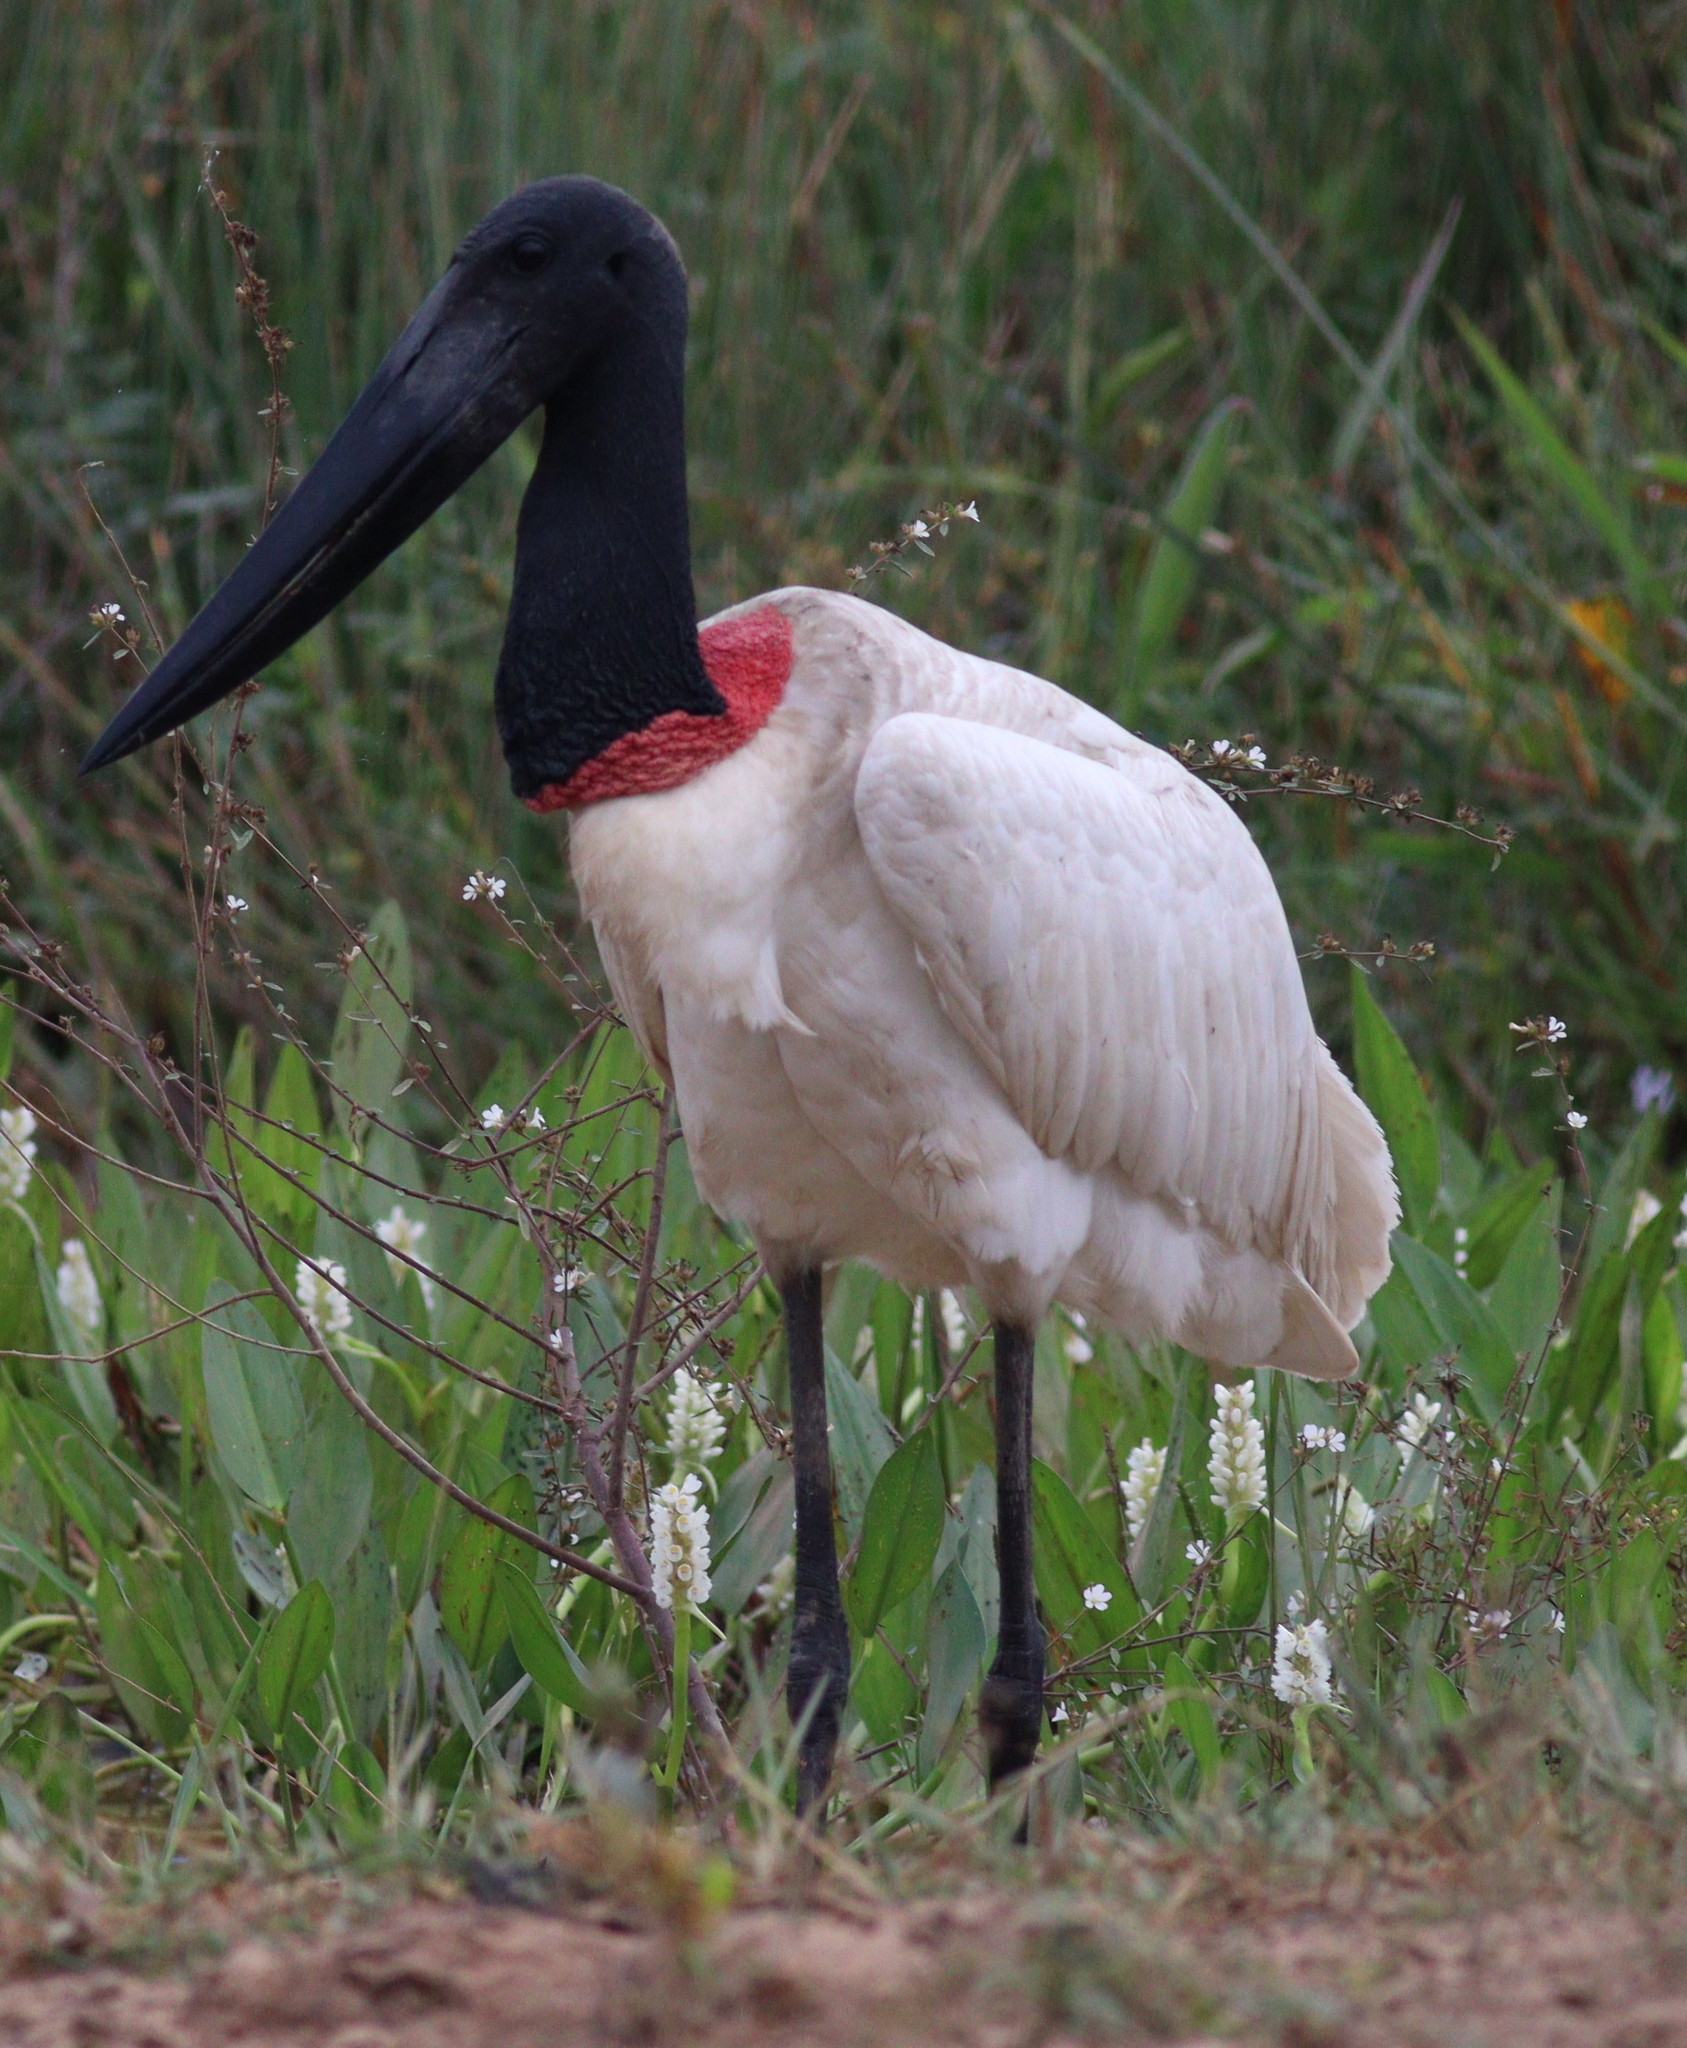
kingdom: Animalia
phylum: Chordata
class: Aves
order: Ciconiiformes
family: Ciconiidae
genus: Jabiru
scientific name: Jabiru mycteria
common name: Jabiru
